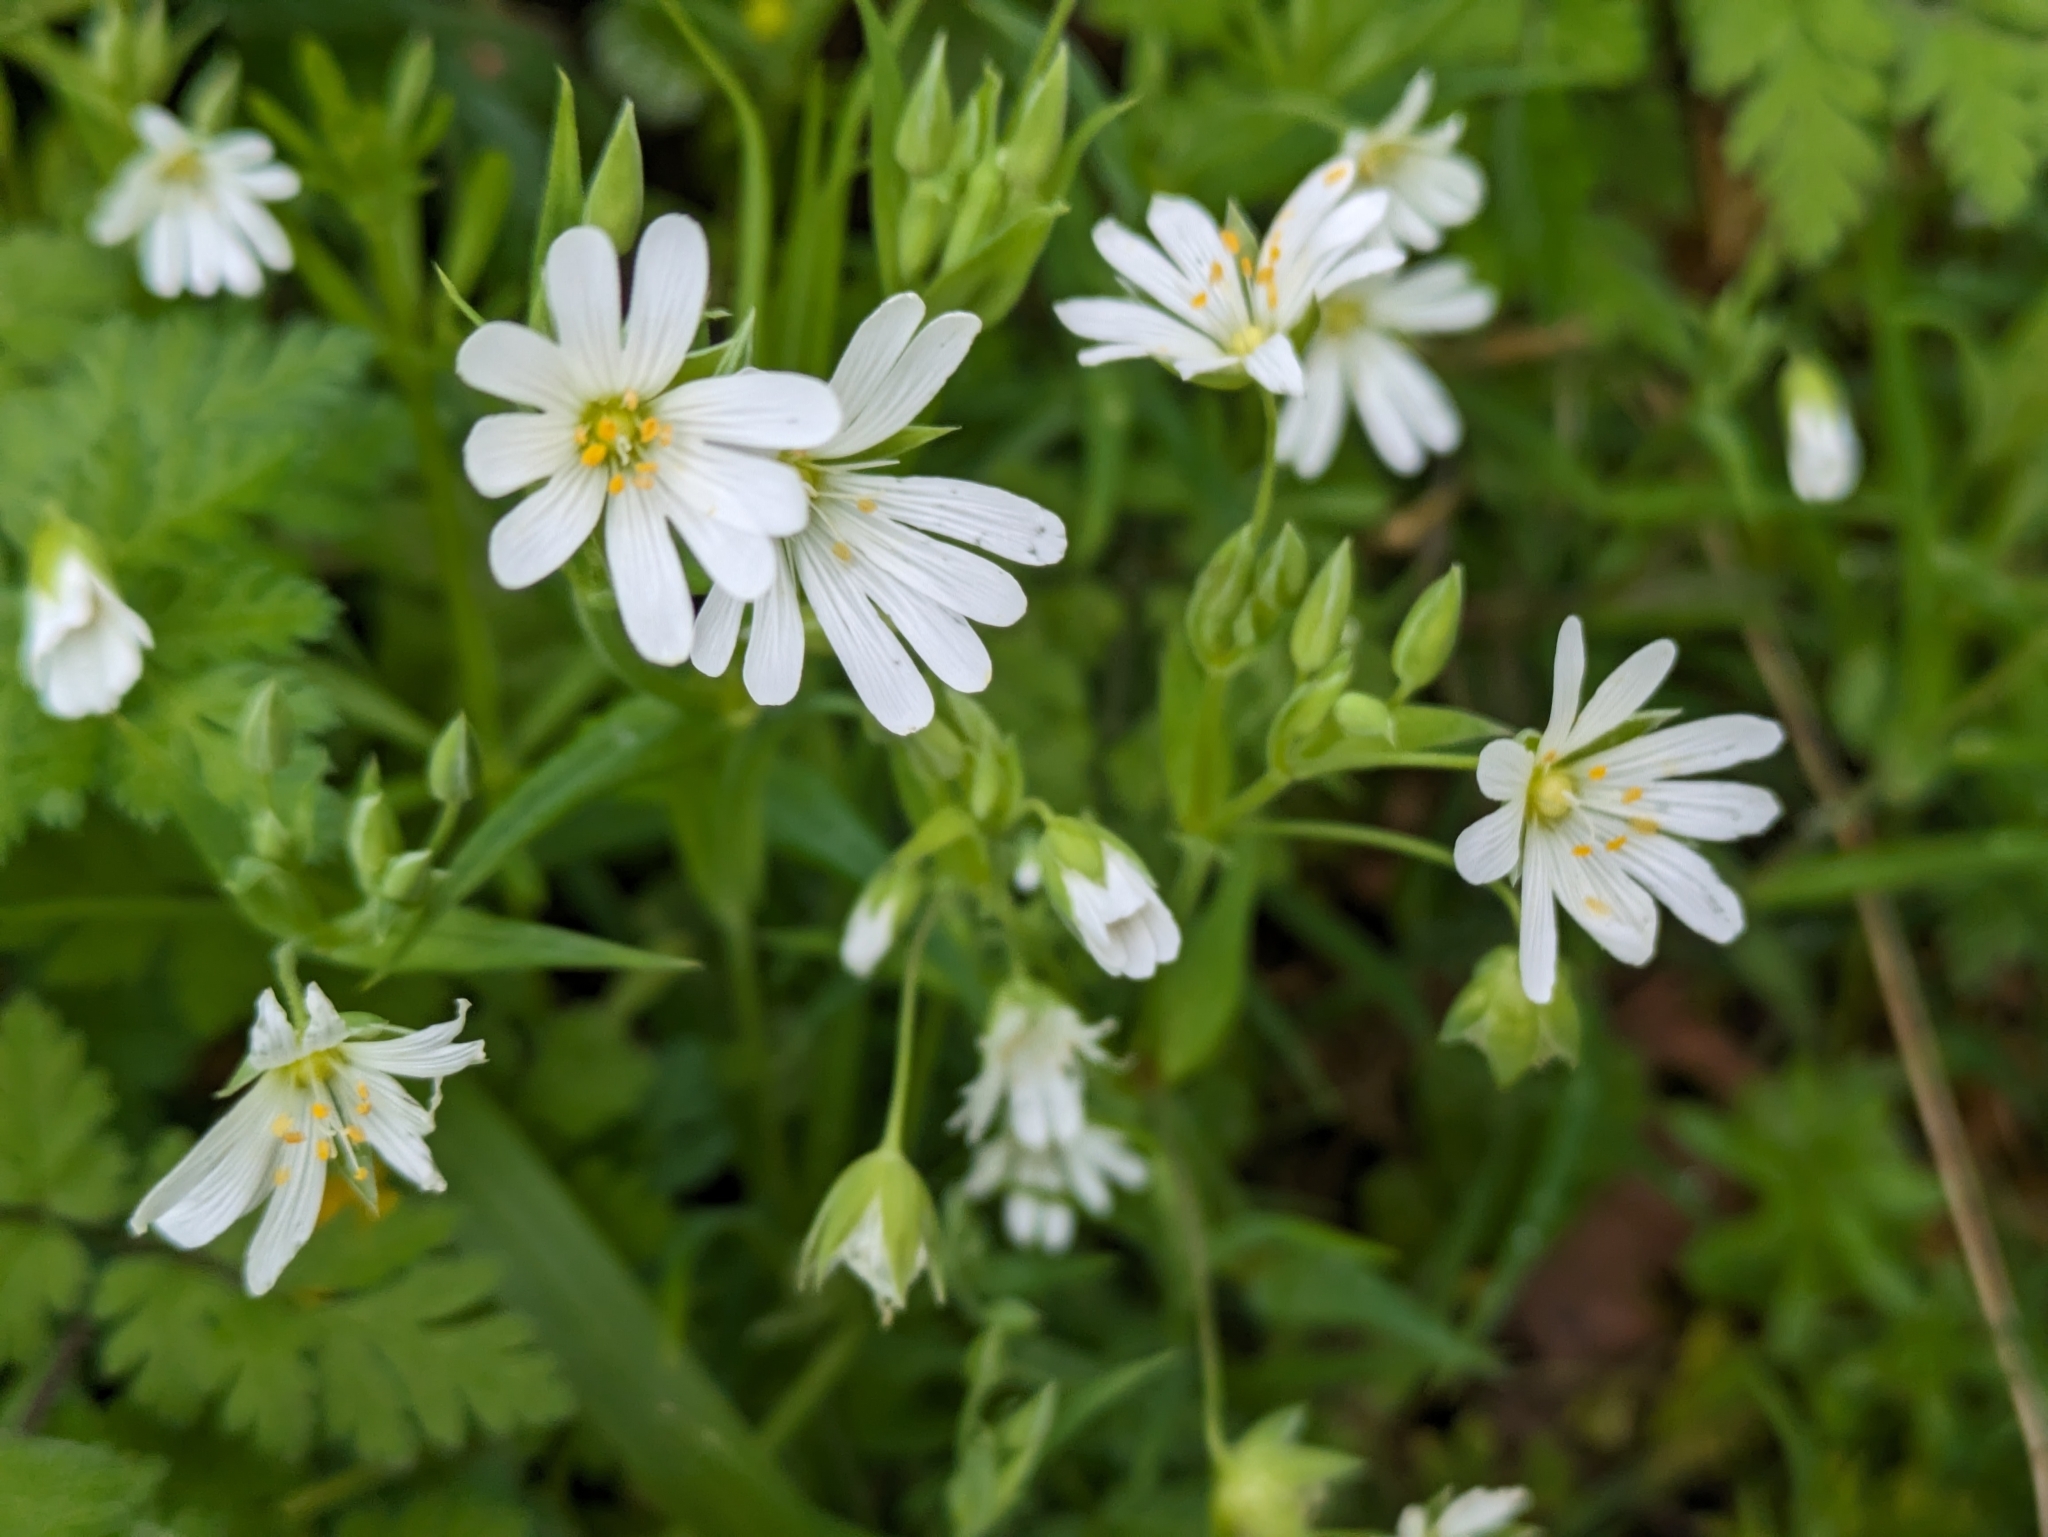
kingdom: Plantae
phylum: Tracheophyta
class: Magnoliopsida
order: Caryophyllales
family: Caryophyllaceae
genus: Rabelera
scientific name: Rabelera holostea
